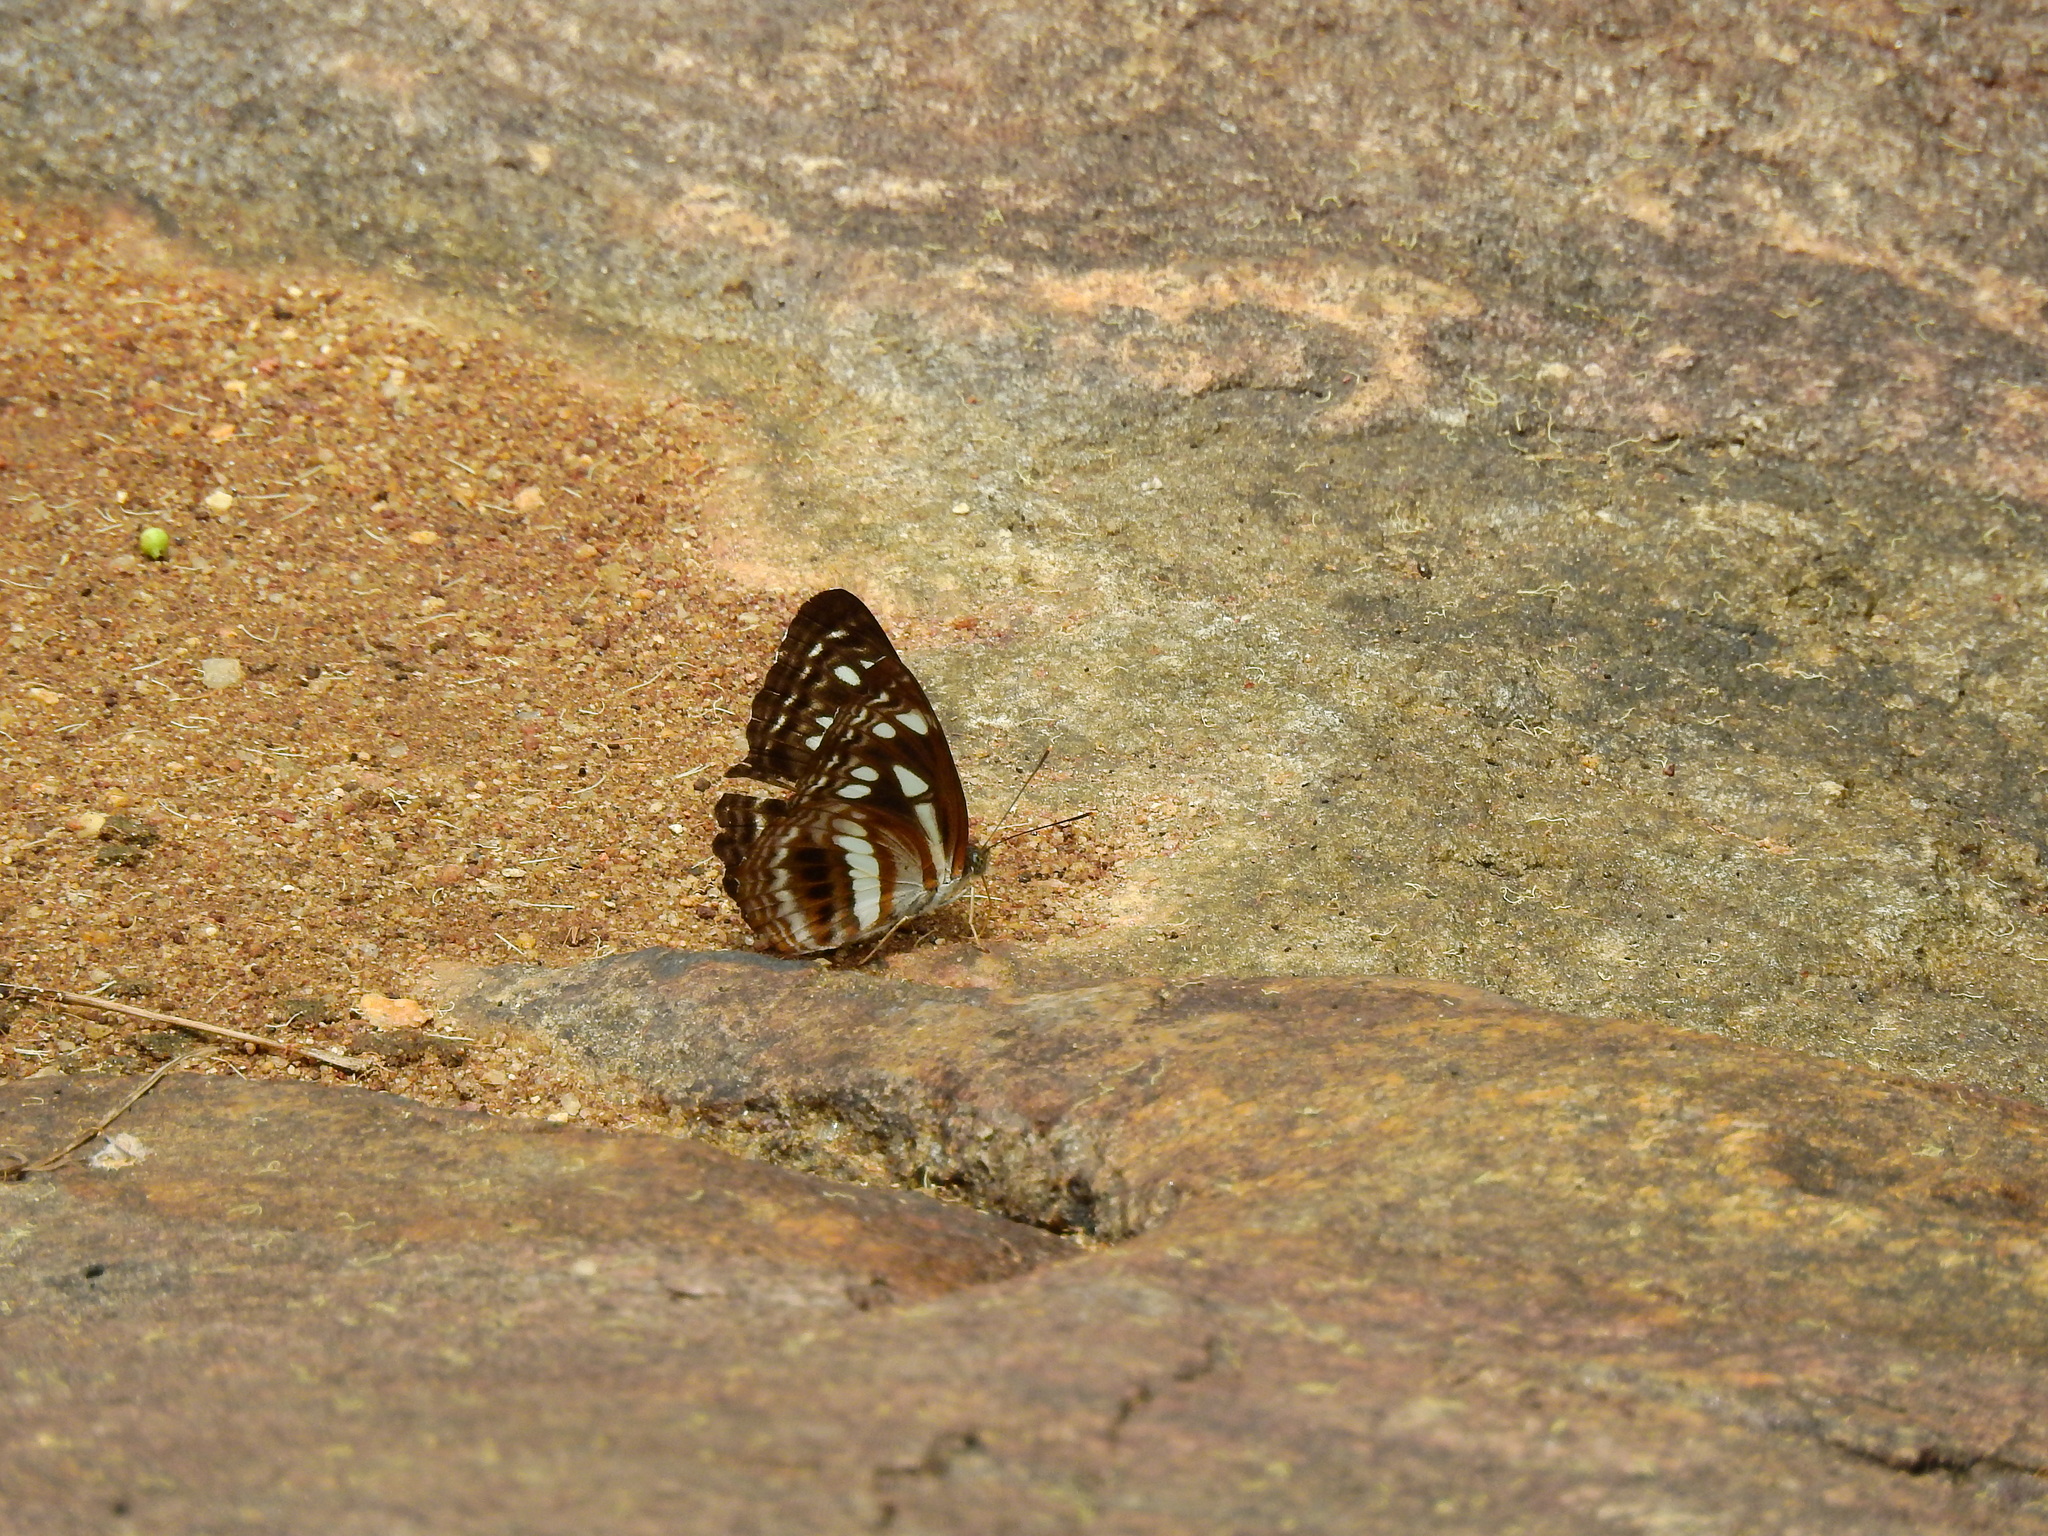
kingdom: Animalia
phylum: Arthropoda
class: Insecta
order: Lepidoptera
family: Nymphalidae
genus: Neptis
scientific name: Neptis jumbah
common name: Chestnut-streaked sailer
